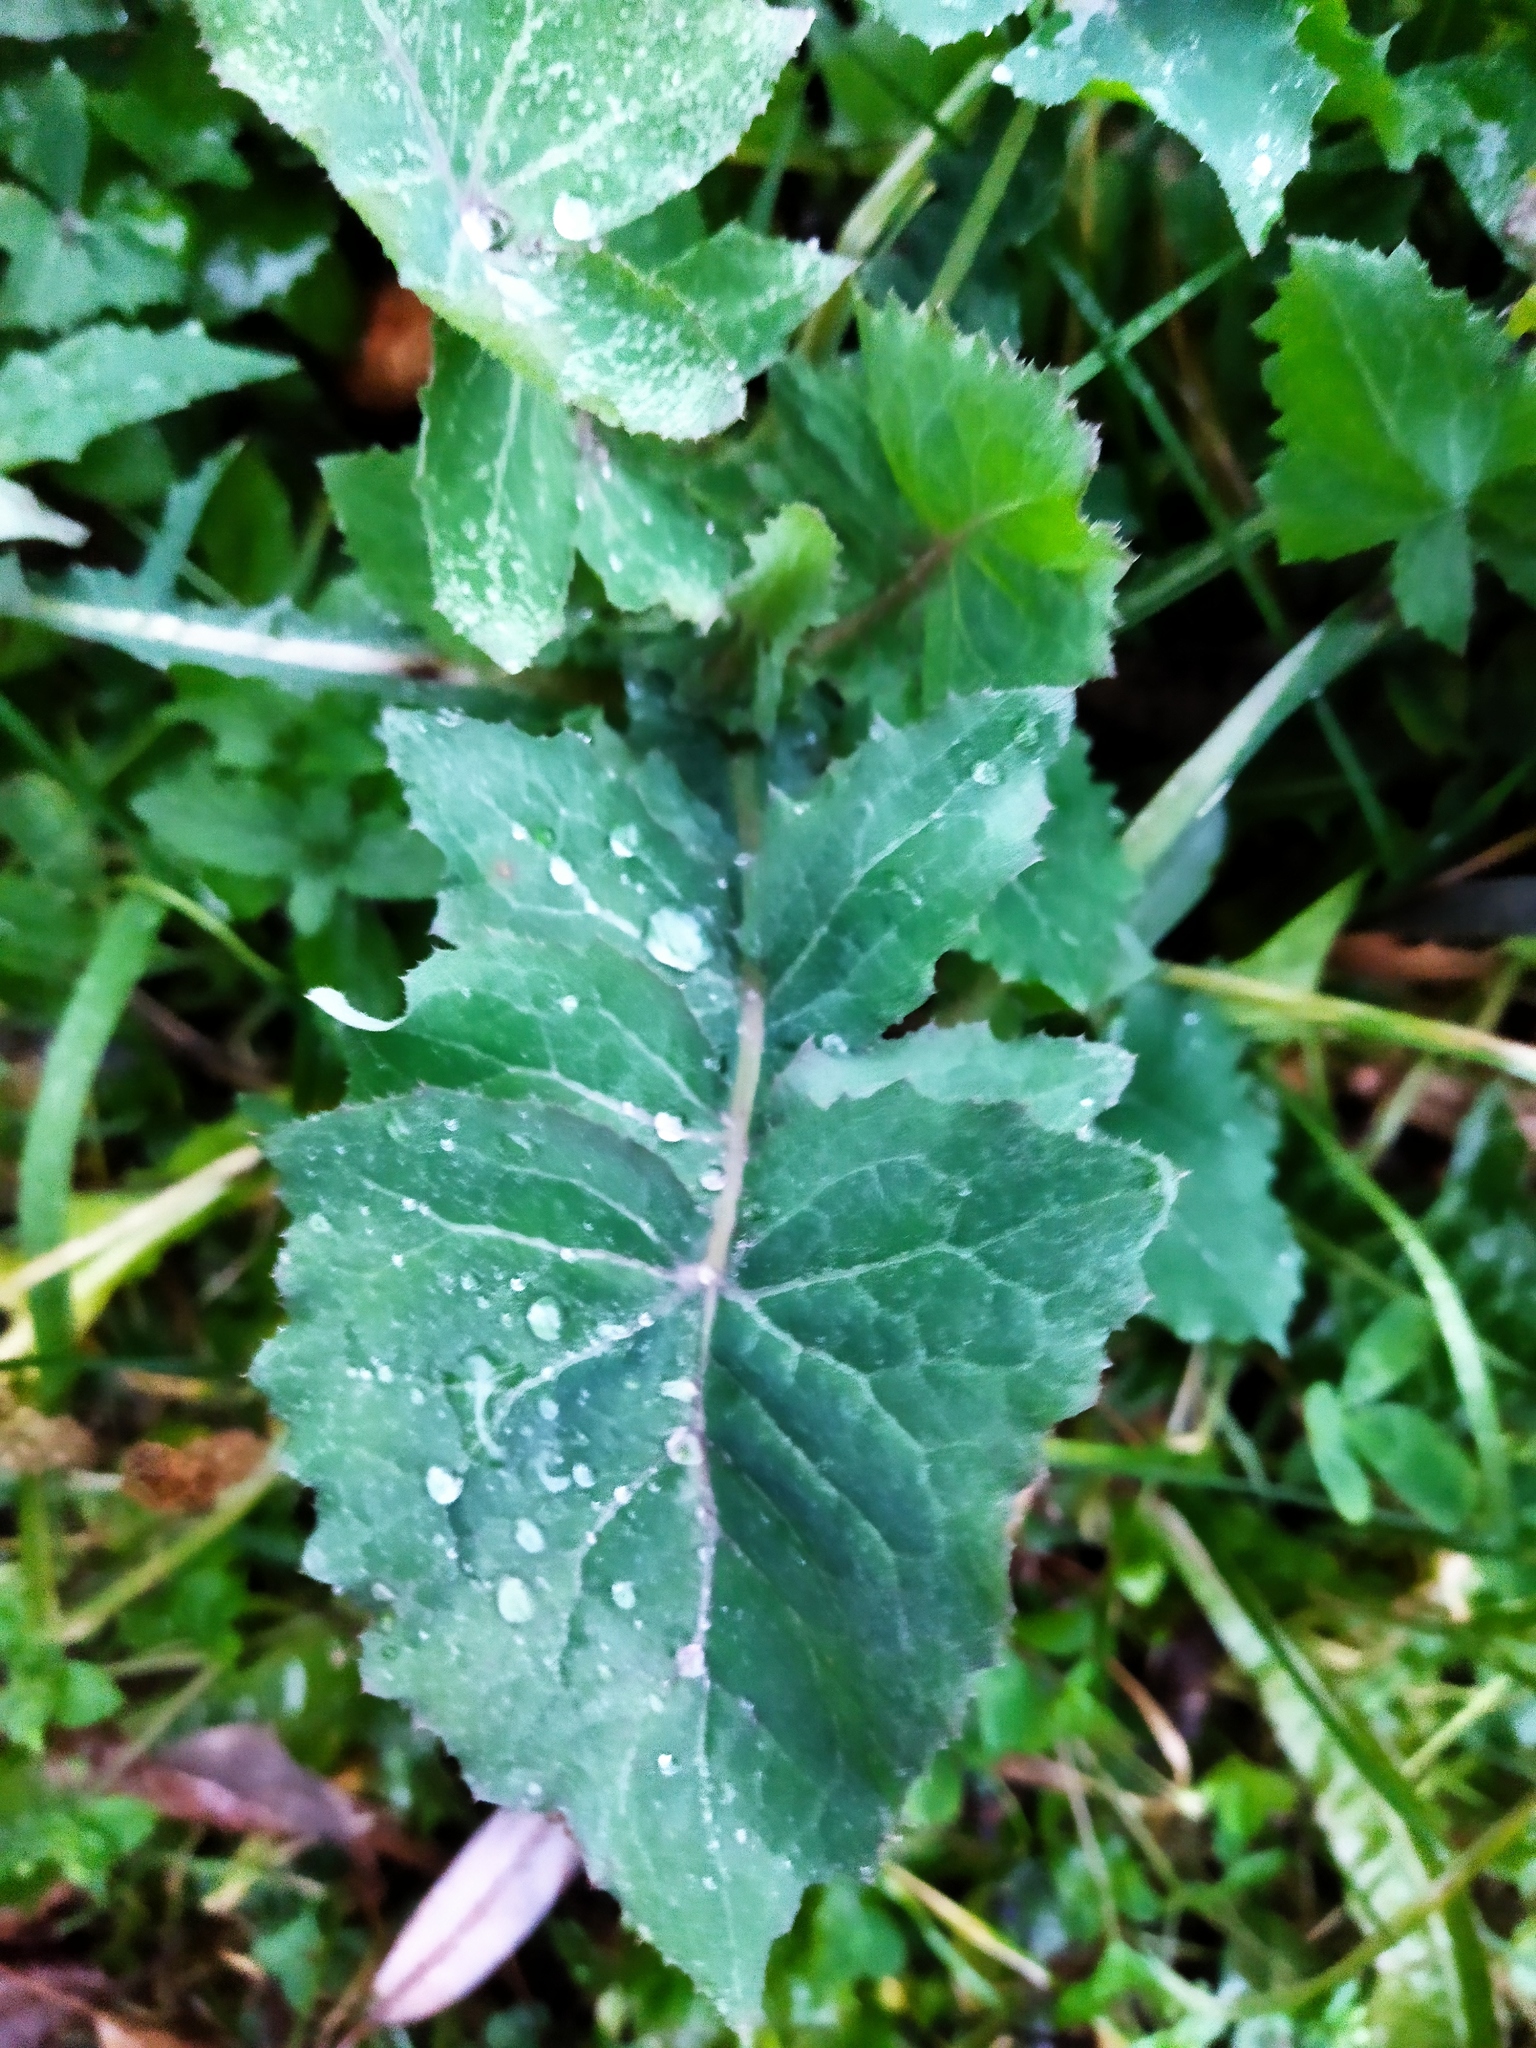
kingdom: Plantae
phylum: Tracheophyta
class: Magnoliopsida
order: Asterales
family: Asteraceae
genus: Sonchus
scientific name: Sonchus oleraceus
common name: Common sowthistle
